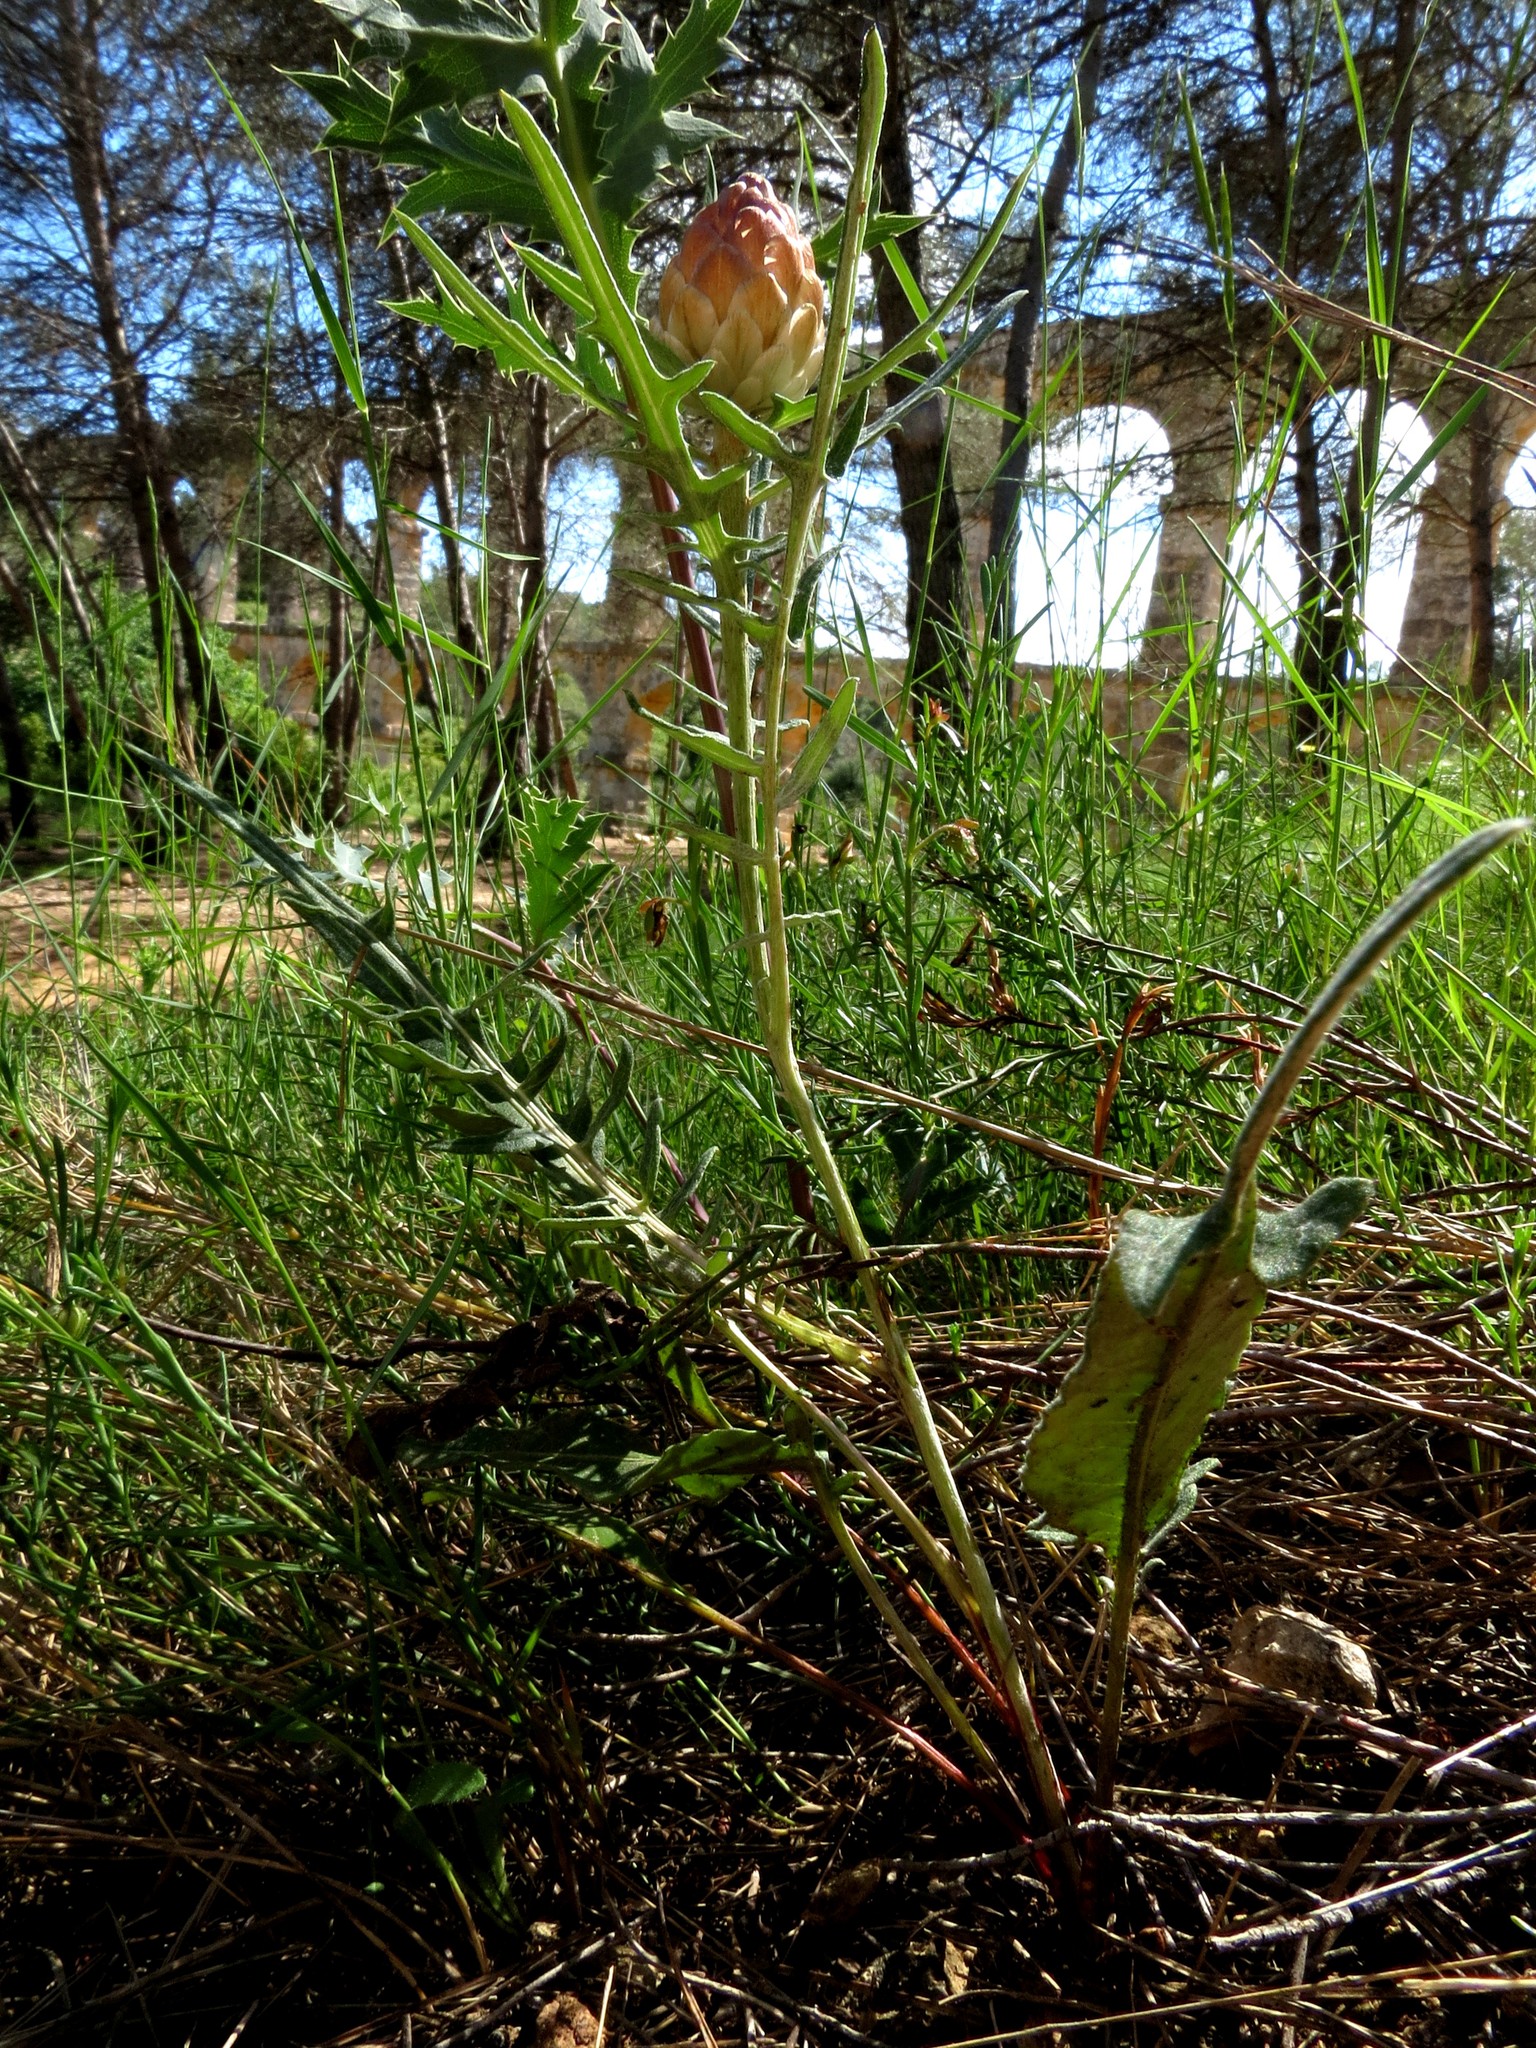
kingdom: Plantae
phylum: Tracheophyta
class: Magnoliopsida
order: Asterales
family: Asteraceae
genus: Leuzea
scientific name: Leuzea conifera
